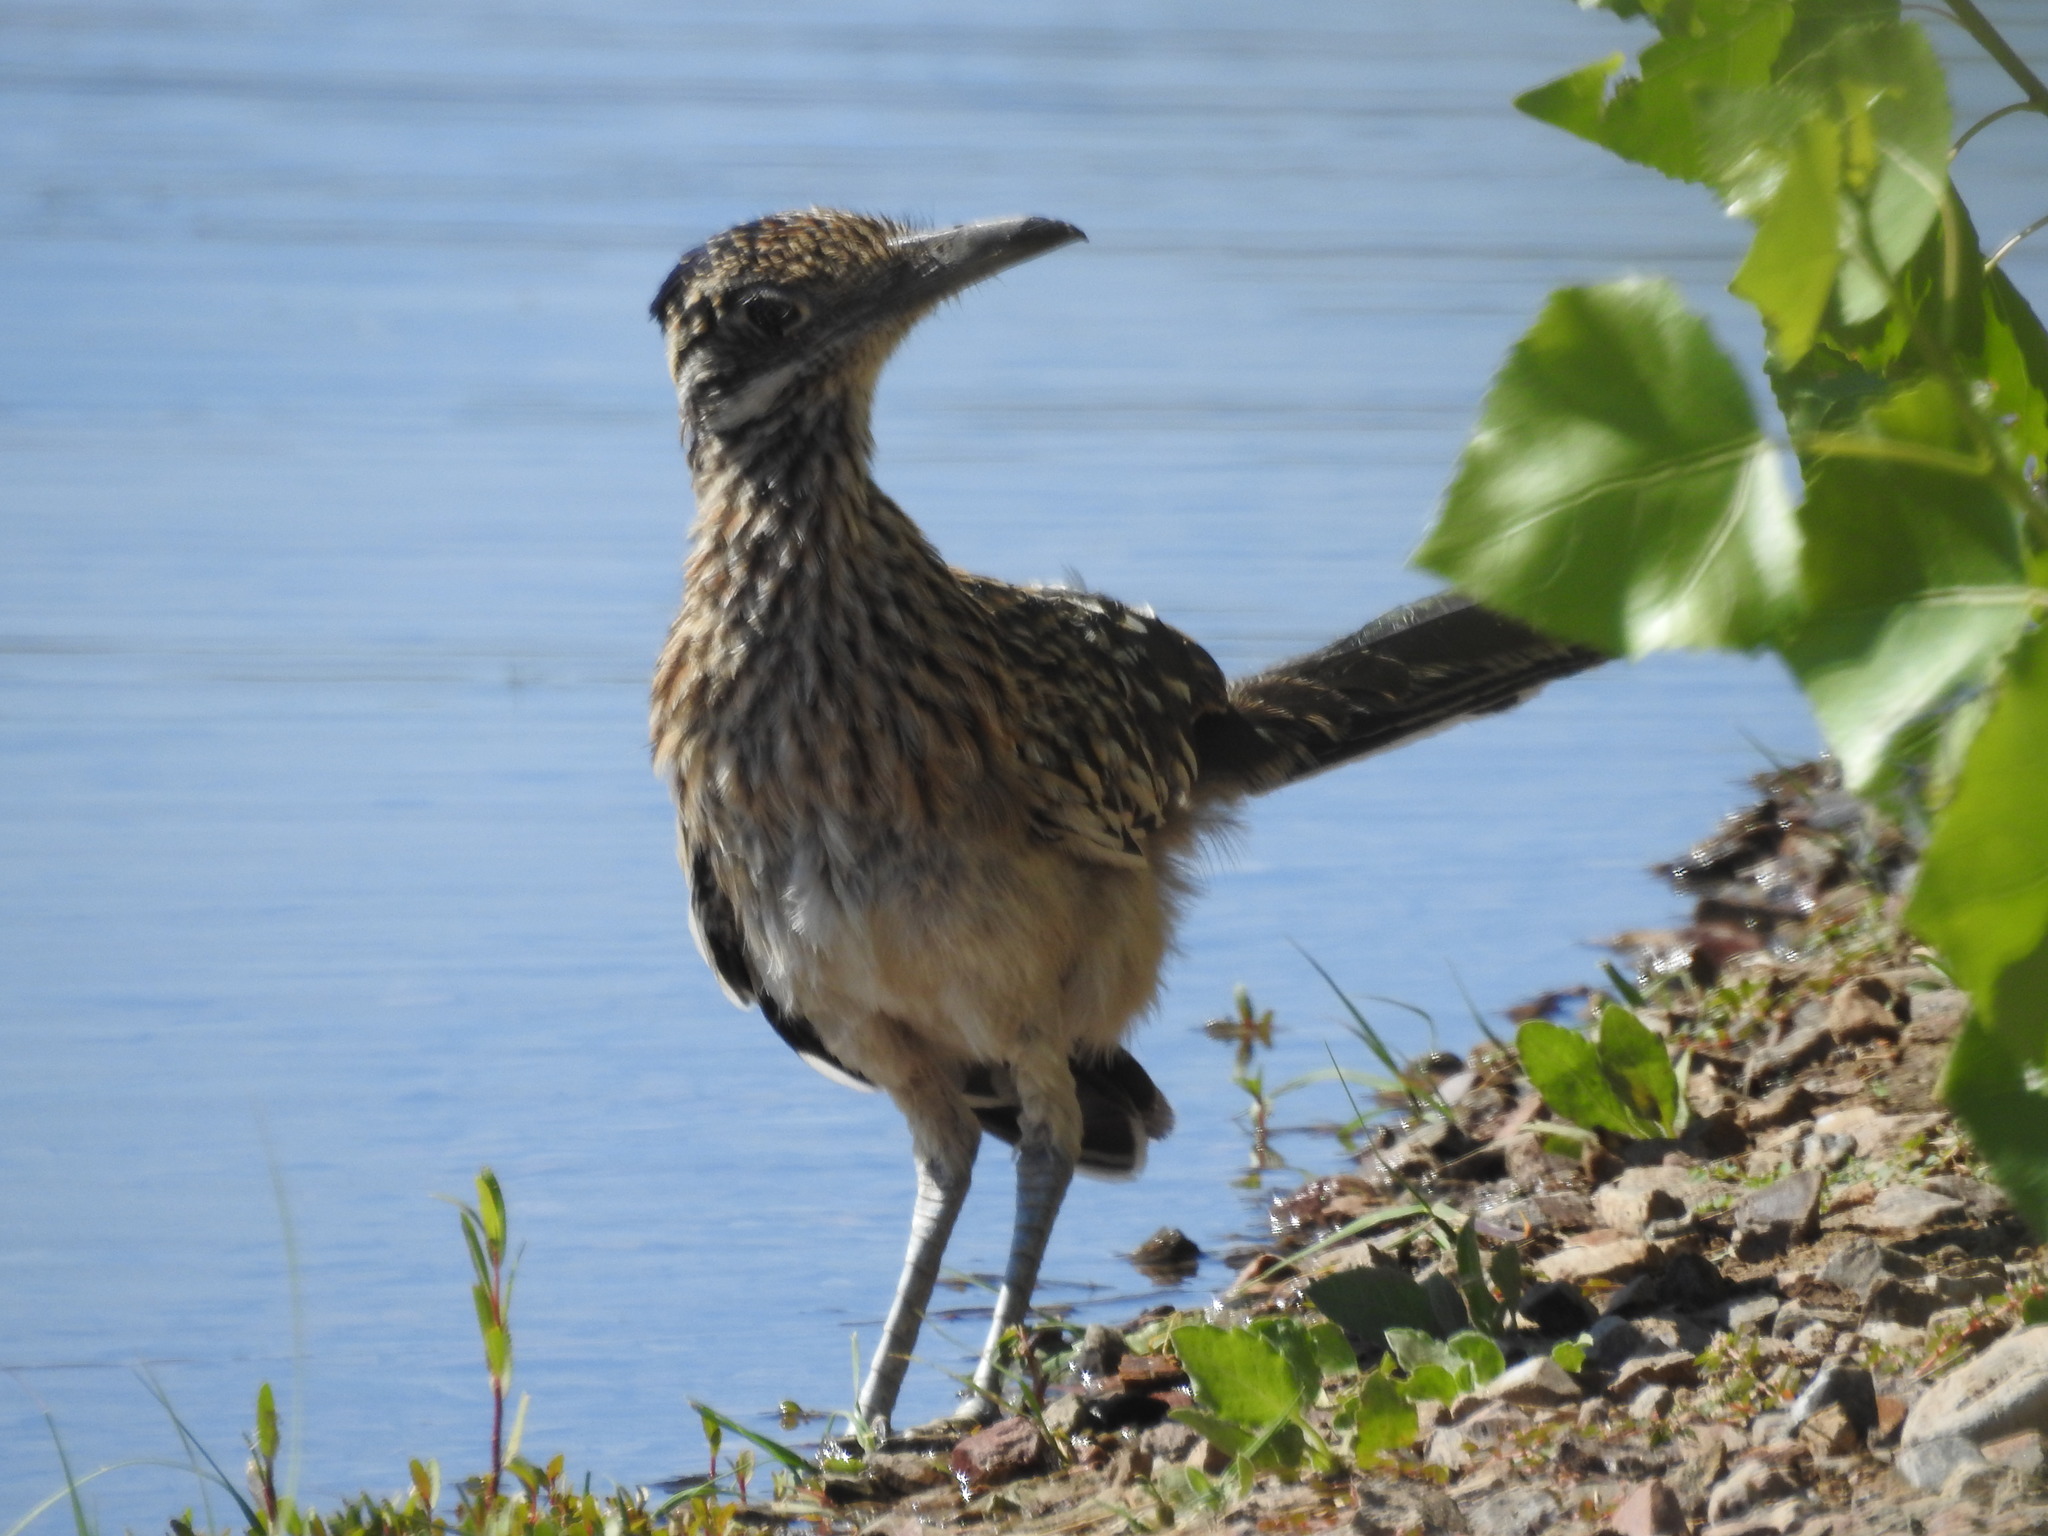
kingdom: Animalia
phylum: Chordata
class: Aves
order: Cuculiformes
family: Cuculidae
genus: Geococcyx
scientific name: Geococcyx californianus
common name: Greater roadrunner
